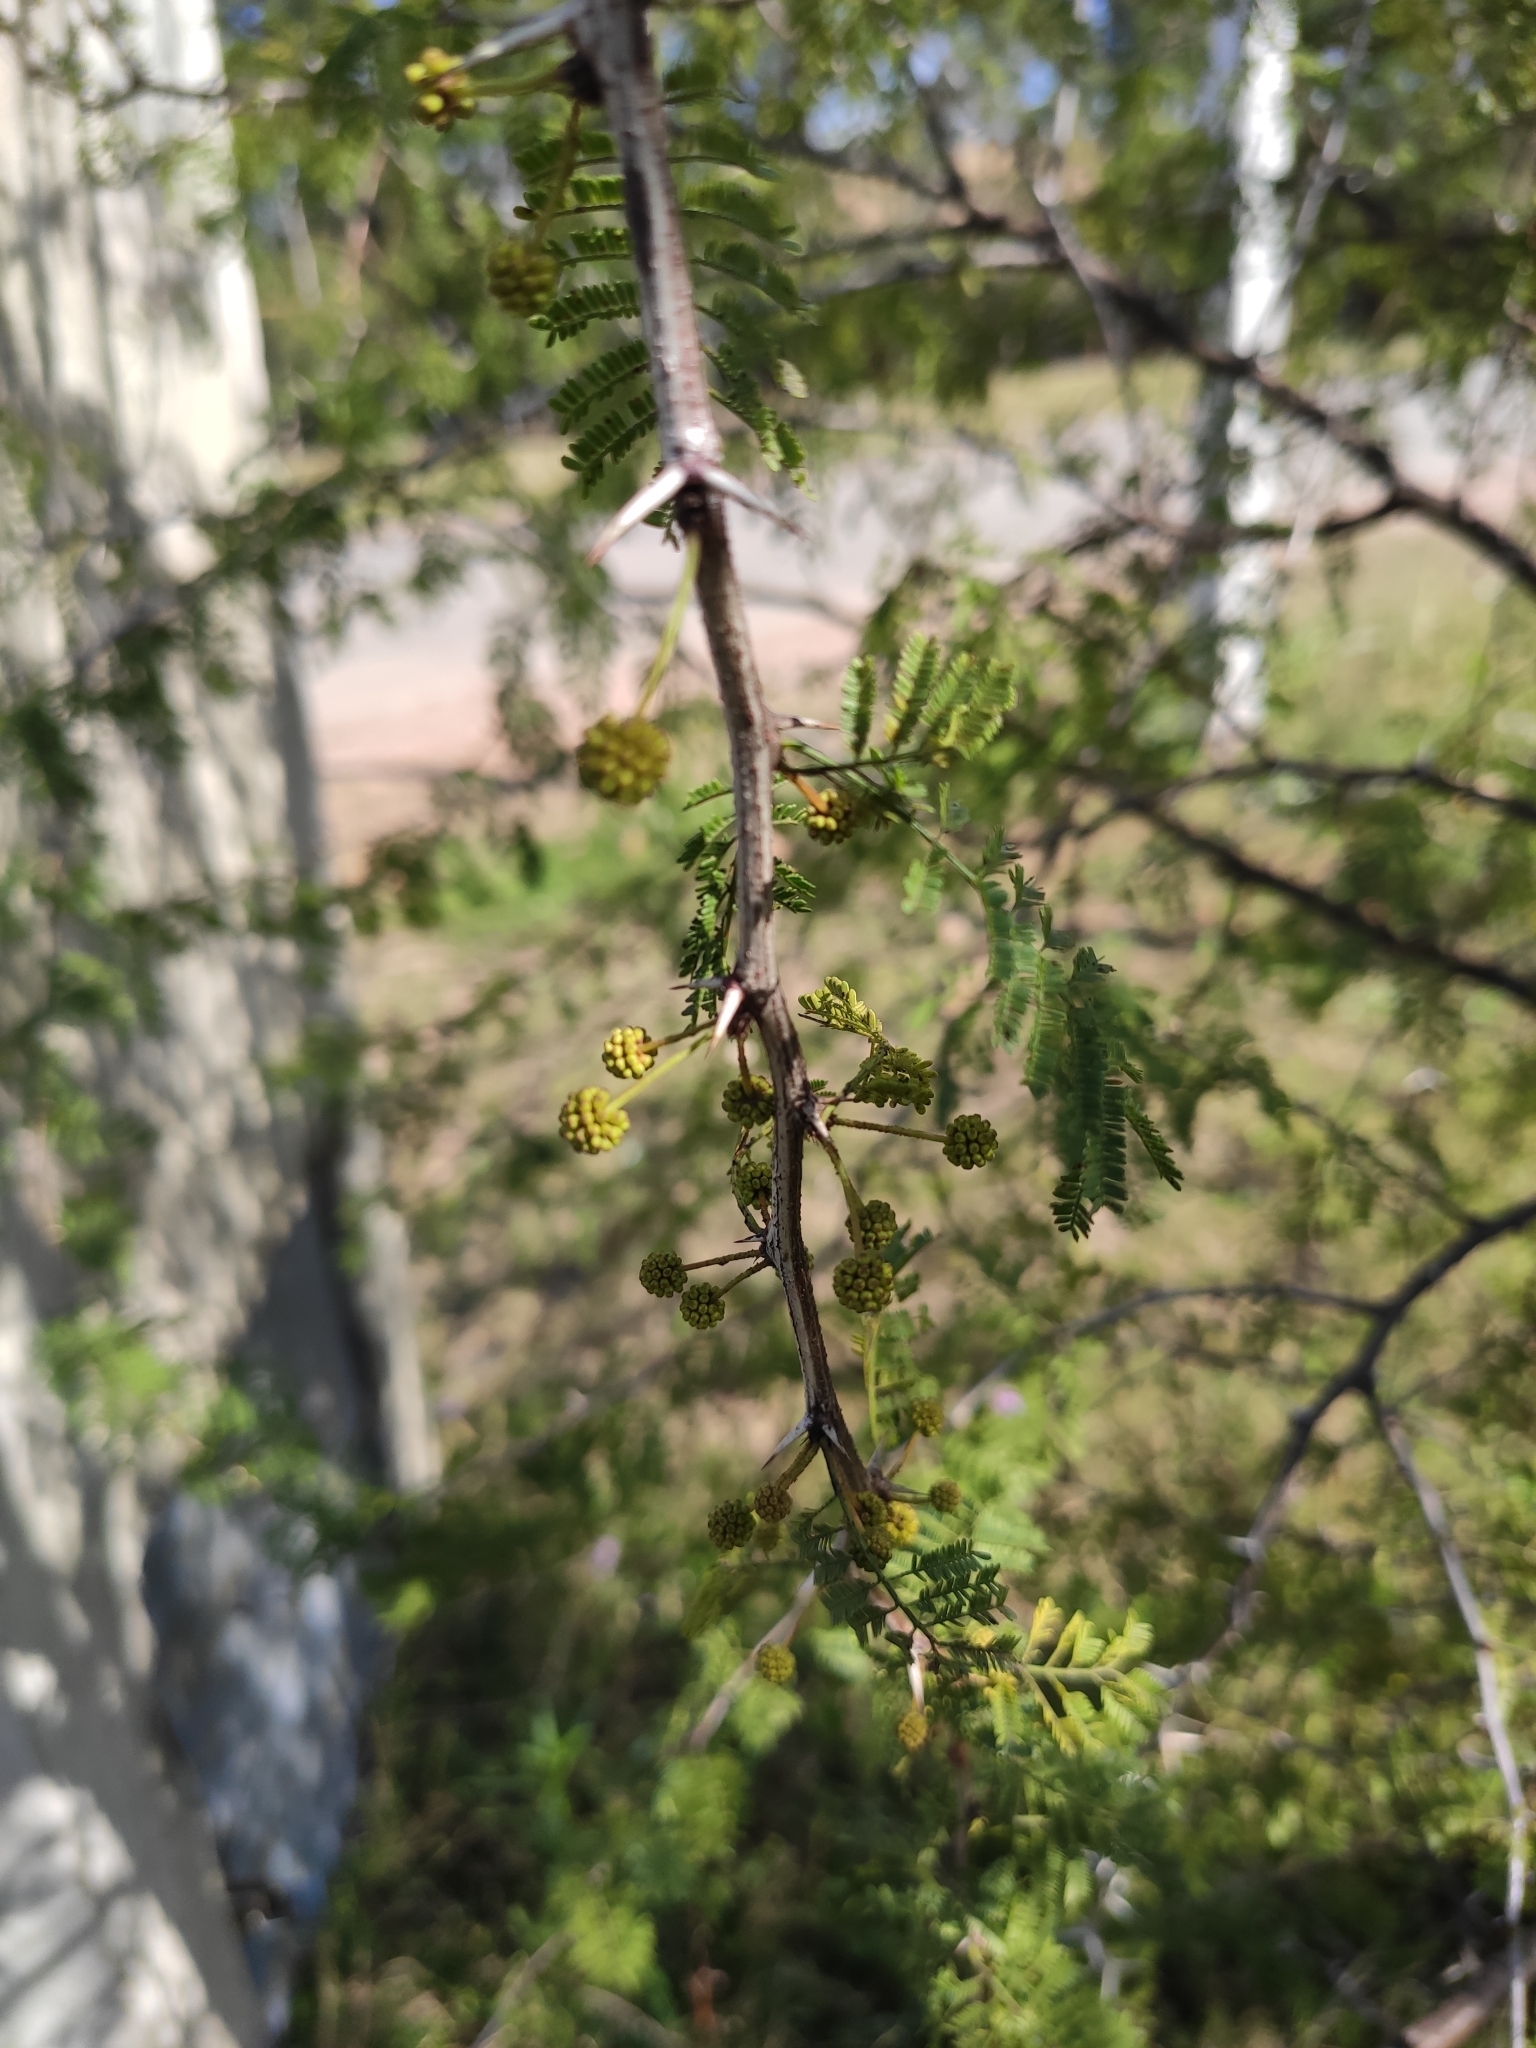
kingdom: Plantae
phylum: Tracheophyta
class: Magnoliopsida
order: Fabales
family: Fabaceae
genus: Vachellia
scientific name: Vachellia caven
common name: Roman cassie
